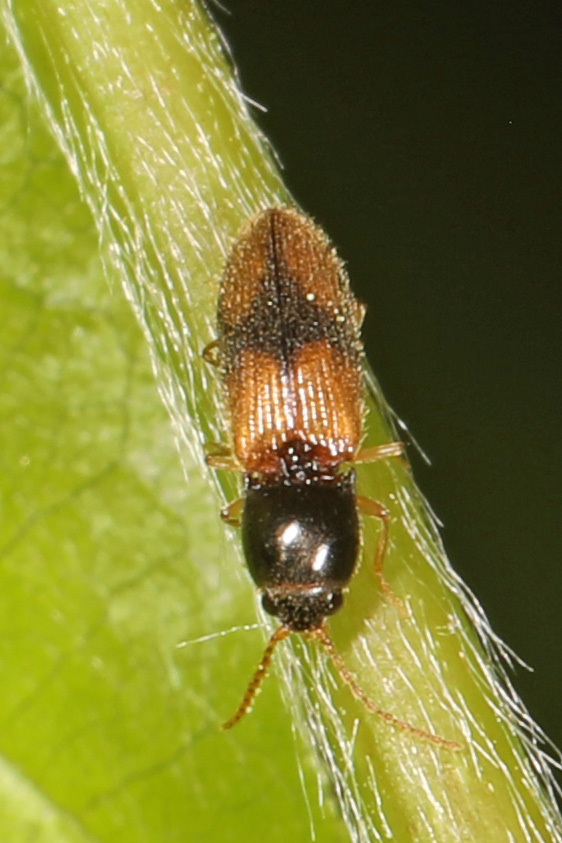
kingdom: Animalia
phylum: Arthropoda
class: Insecta
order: Coleoptera
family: Elateridae
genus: Horistonotus
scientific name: Horistonotus curiatus
